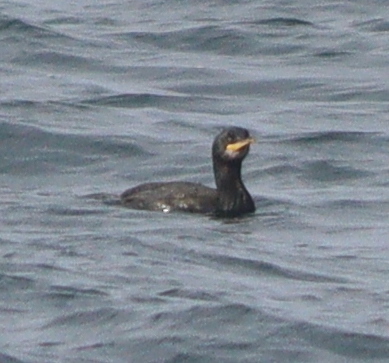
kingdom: Animalia
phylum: Chordata
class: Aves
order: Suliformes
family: Phalacrocoracidae
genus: Phalacrocorax
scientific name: Phalacrocorax aristotelis
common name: European shag
